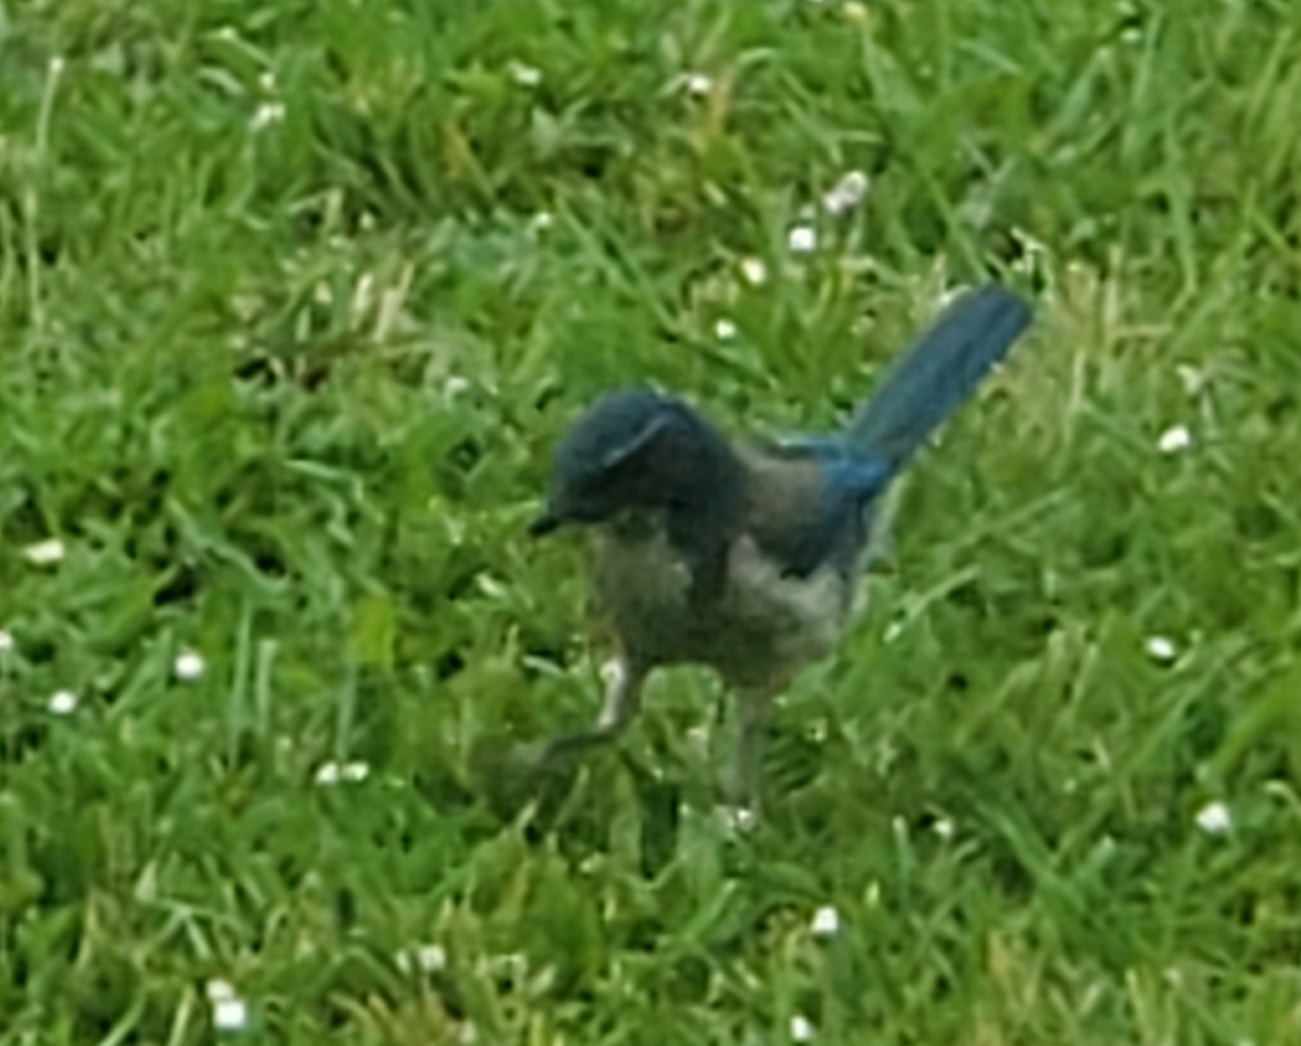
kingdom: Animalia
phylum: Chordata
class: Aves
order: Passeriformes
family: Corvidae
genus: Aphelocoma
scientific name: Aphelocoma californica
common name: California scrub-jay
